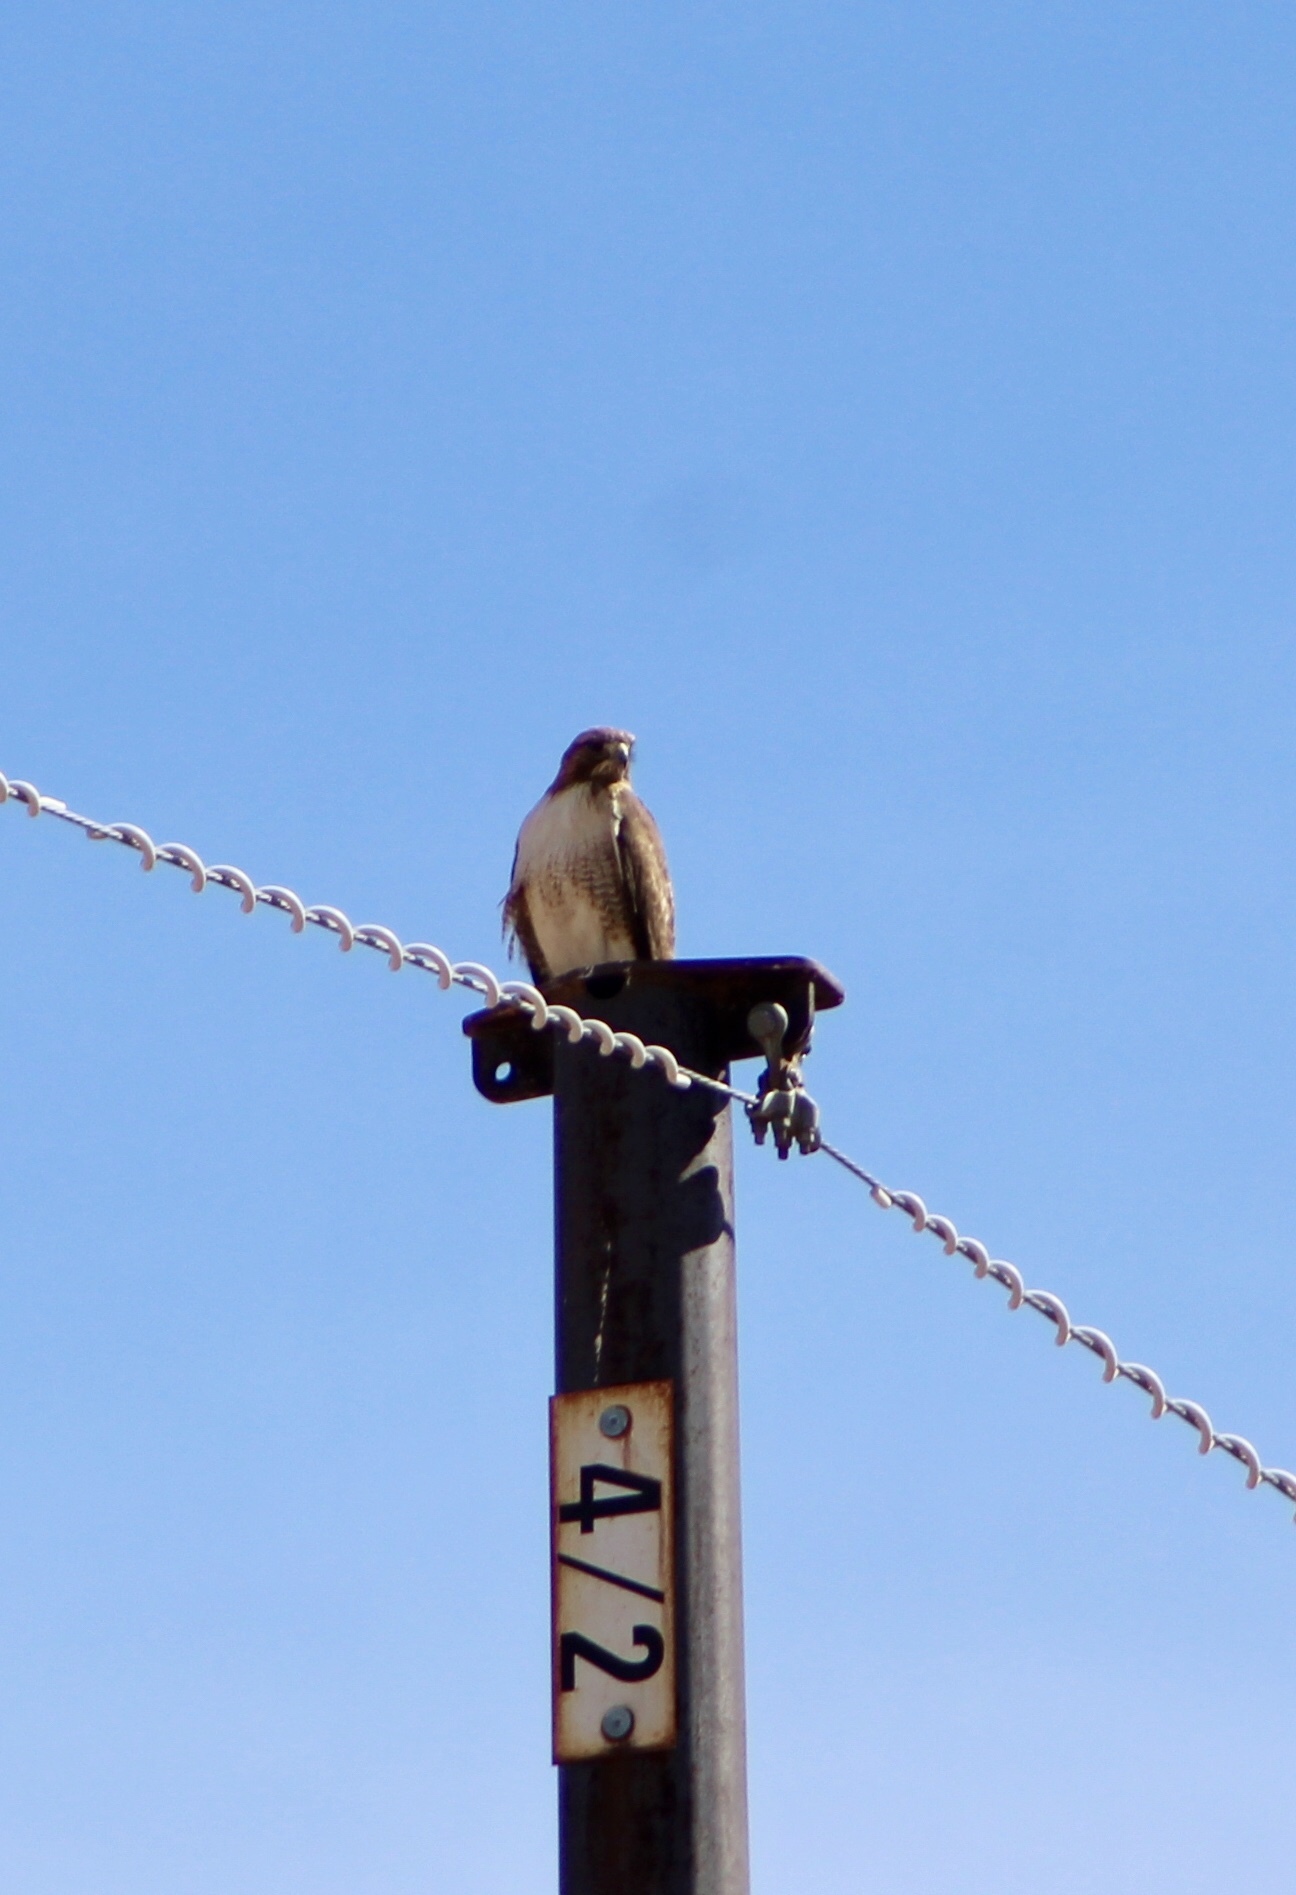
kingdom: Animalia
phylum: Chordata
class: Aves
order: Accipitriformes
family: Accipitridae
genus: Buteo
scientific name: Buteo jamaicensis
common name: Red-tailed hawk
